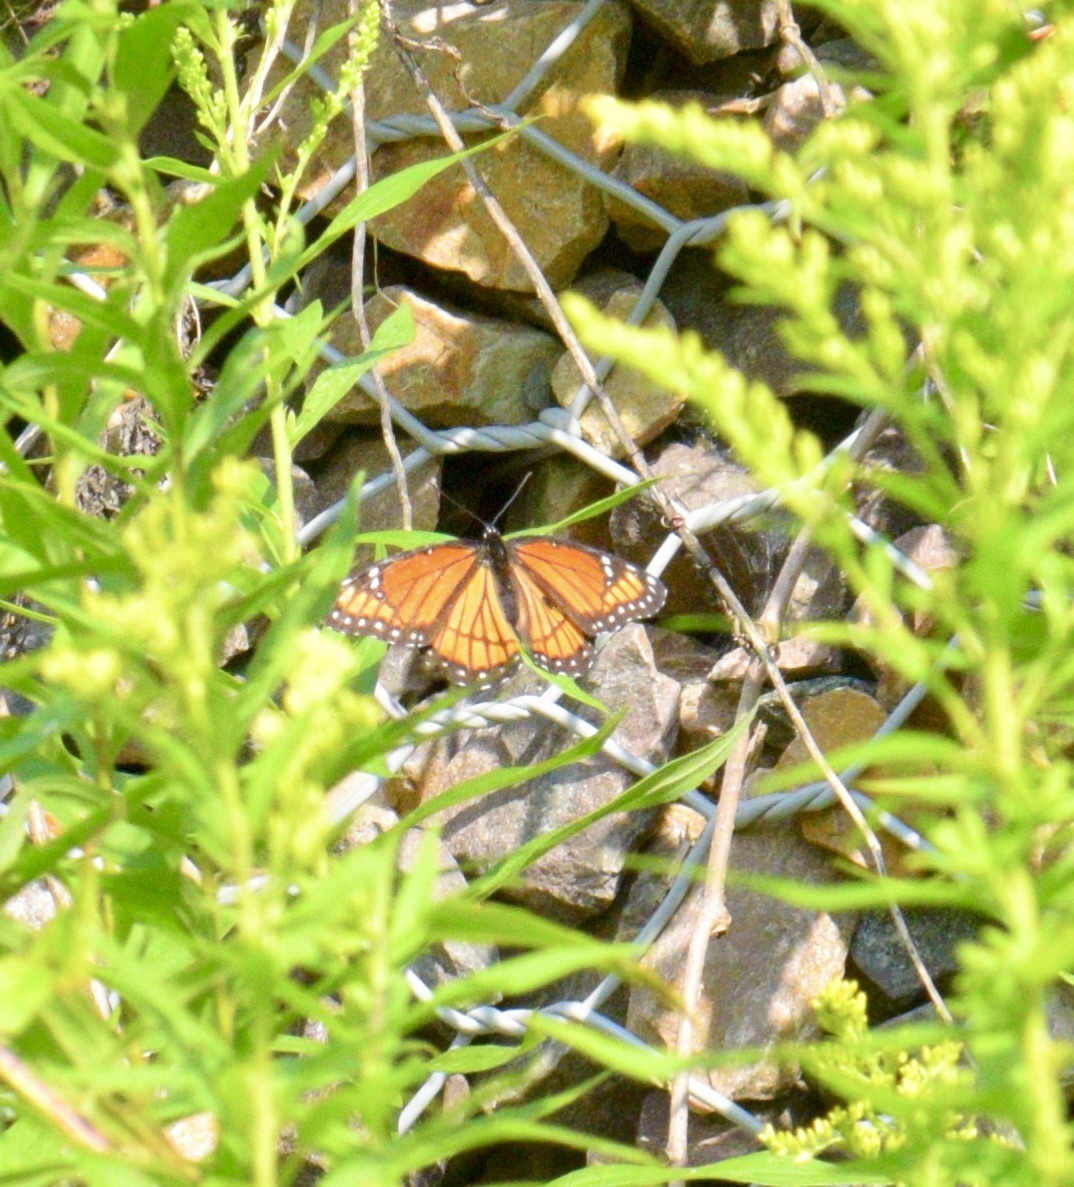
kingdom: Animalia
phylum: Arthropoda
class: Insecta
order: Lepidoptera
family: Nymphalidae
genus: Limenitis
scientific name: Limenitis archippus
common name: Viceroy
